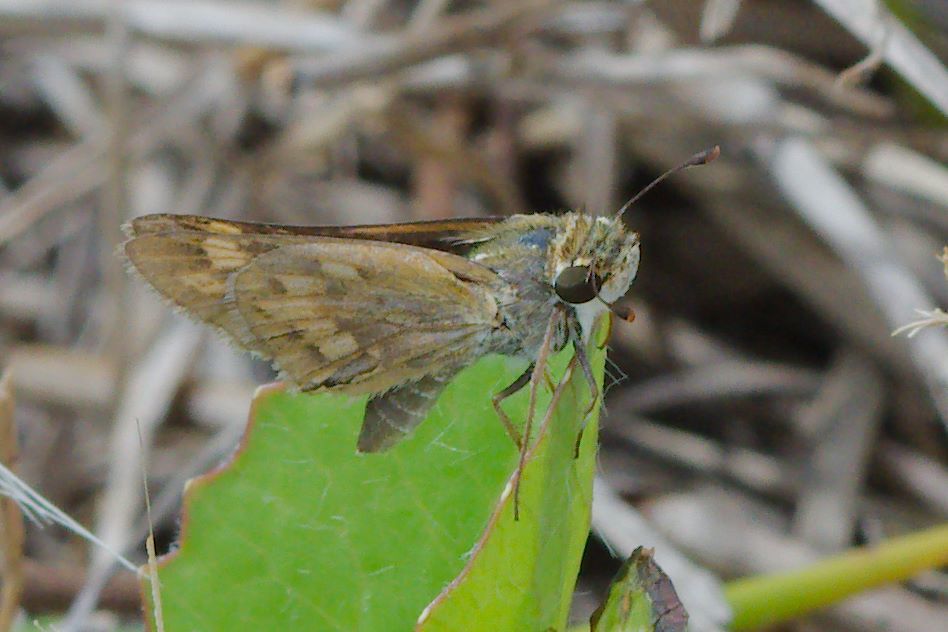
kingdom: Animalia
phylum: Arthropoda
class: Insecta
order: Lepidoptera
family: Hesperiidae
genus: Hylephila
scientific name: Hylephila phyleus
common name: Fiery skipper
